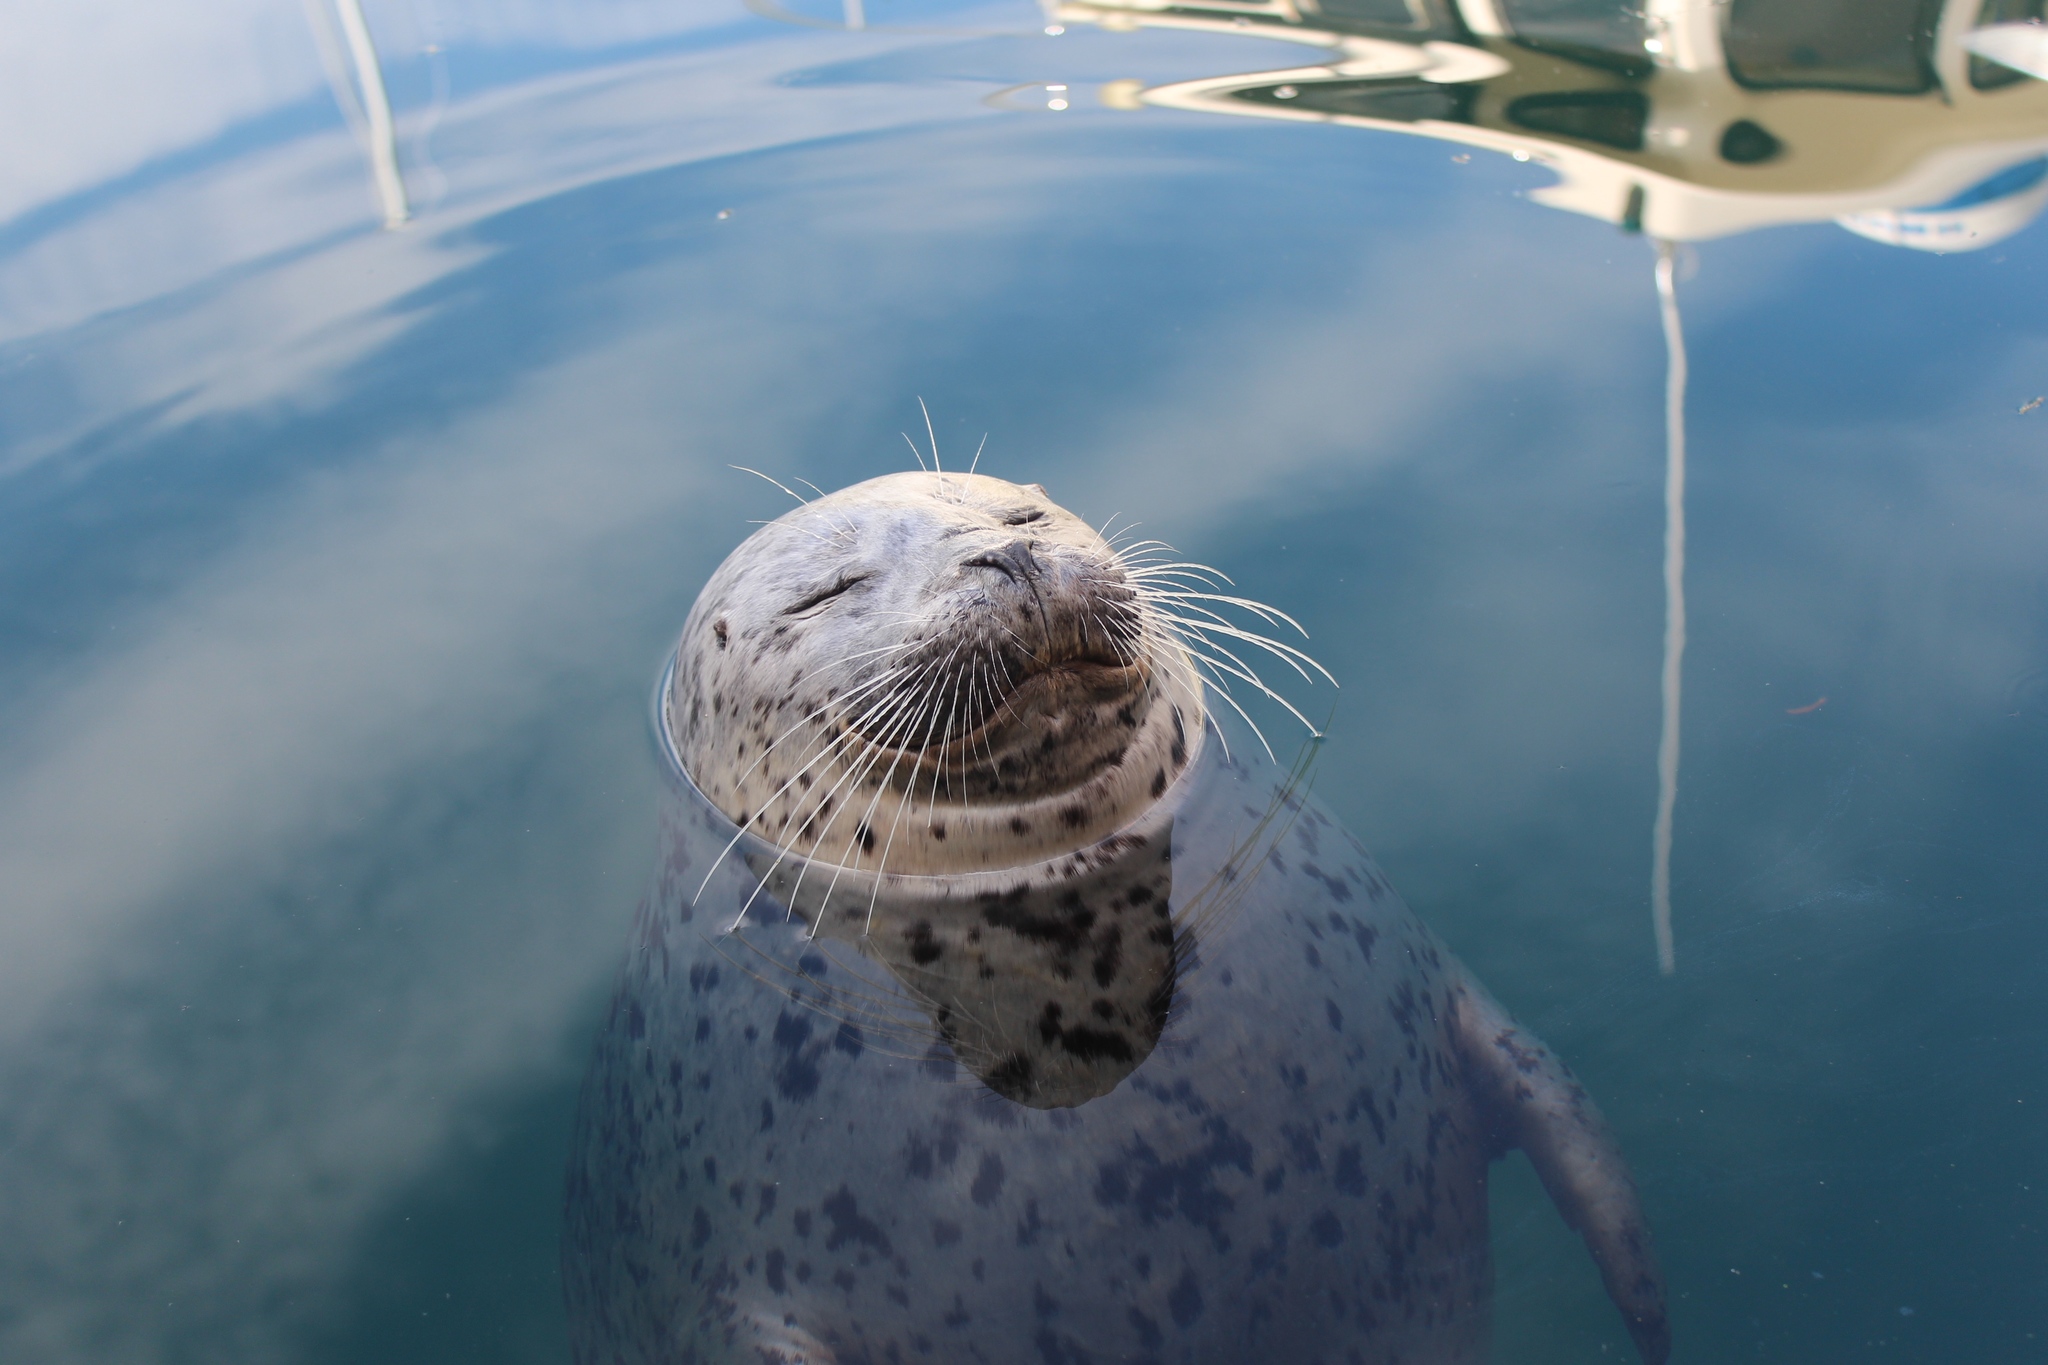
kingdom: Animalia
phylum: Chordata
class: Mammalia
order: Carnivora
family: Phocidae
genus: Phoca
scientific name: Phoca vitulina
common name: Harbor seal
